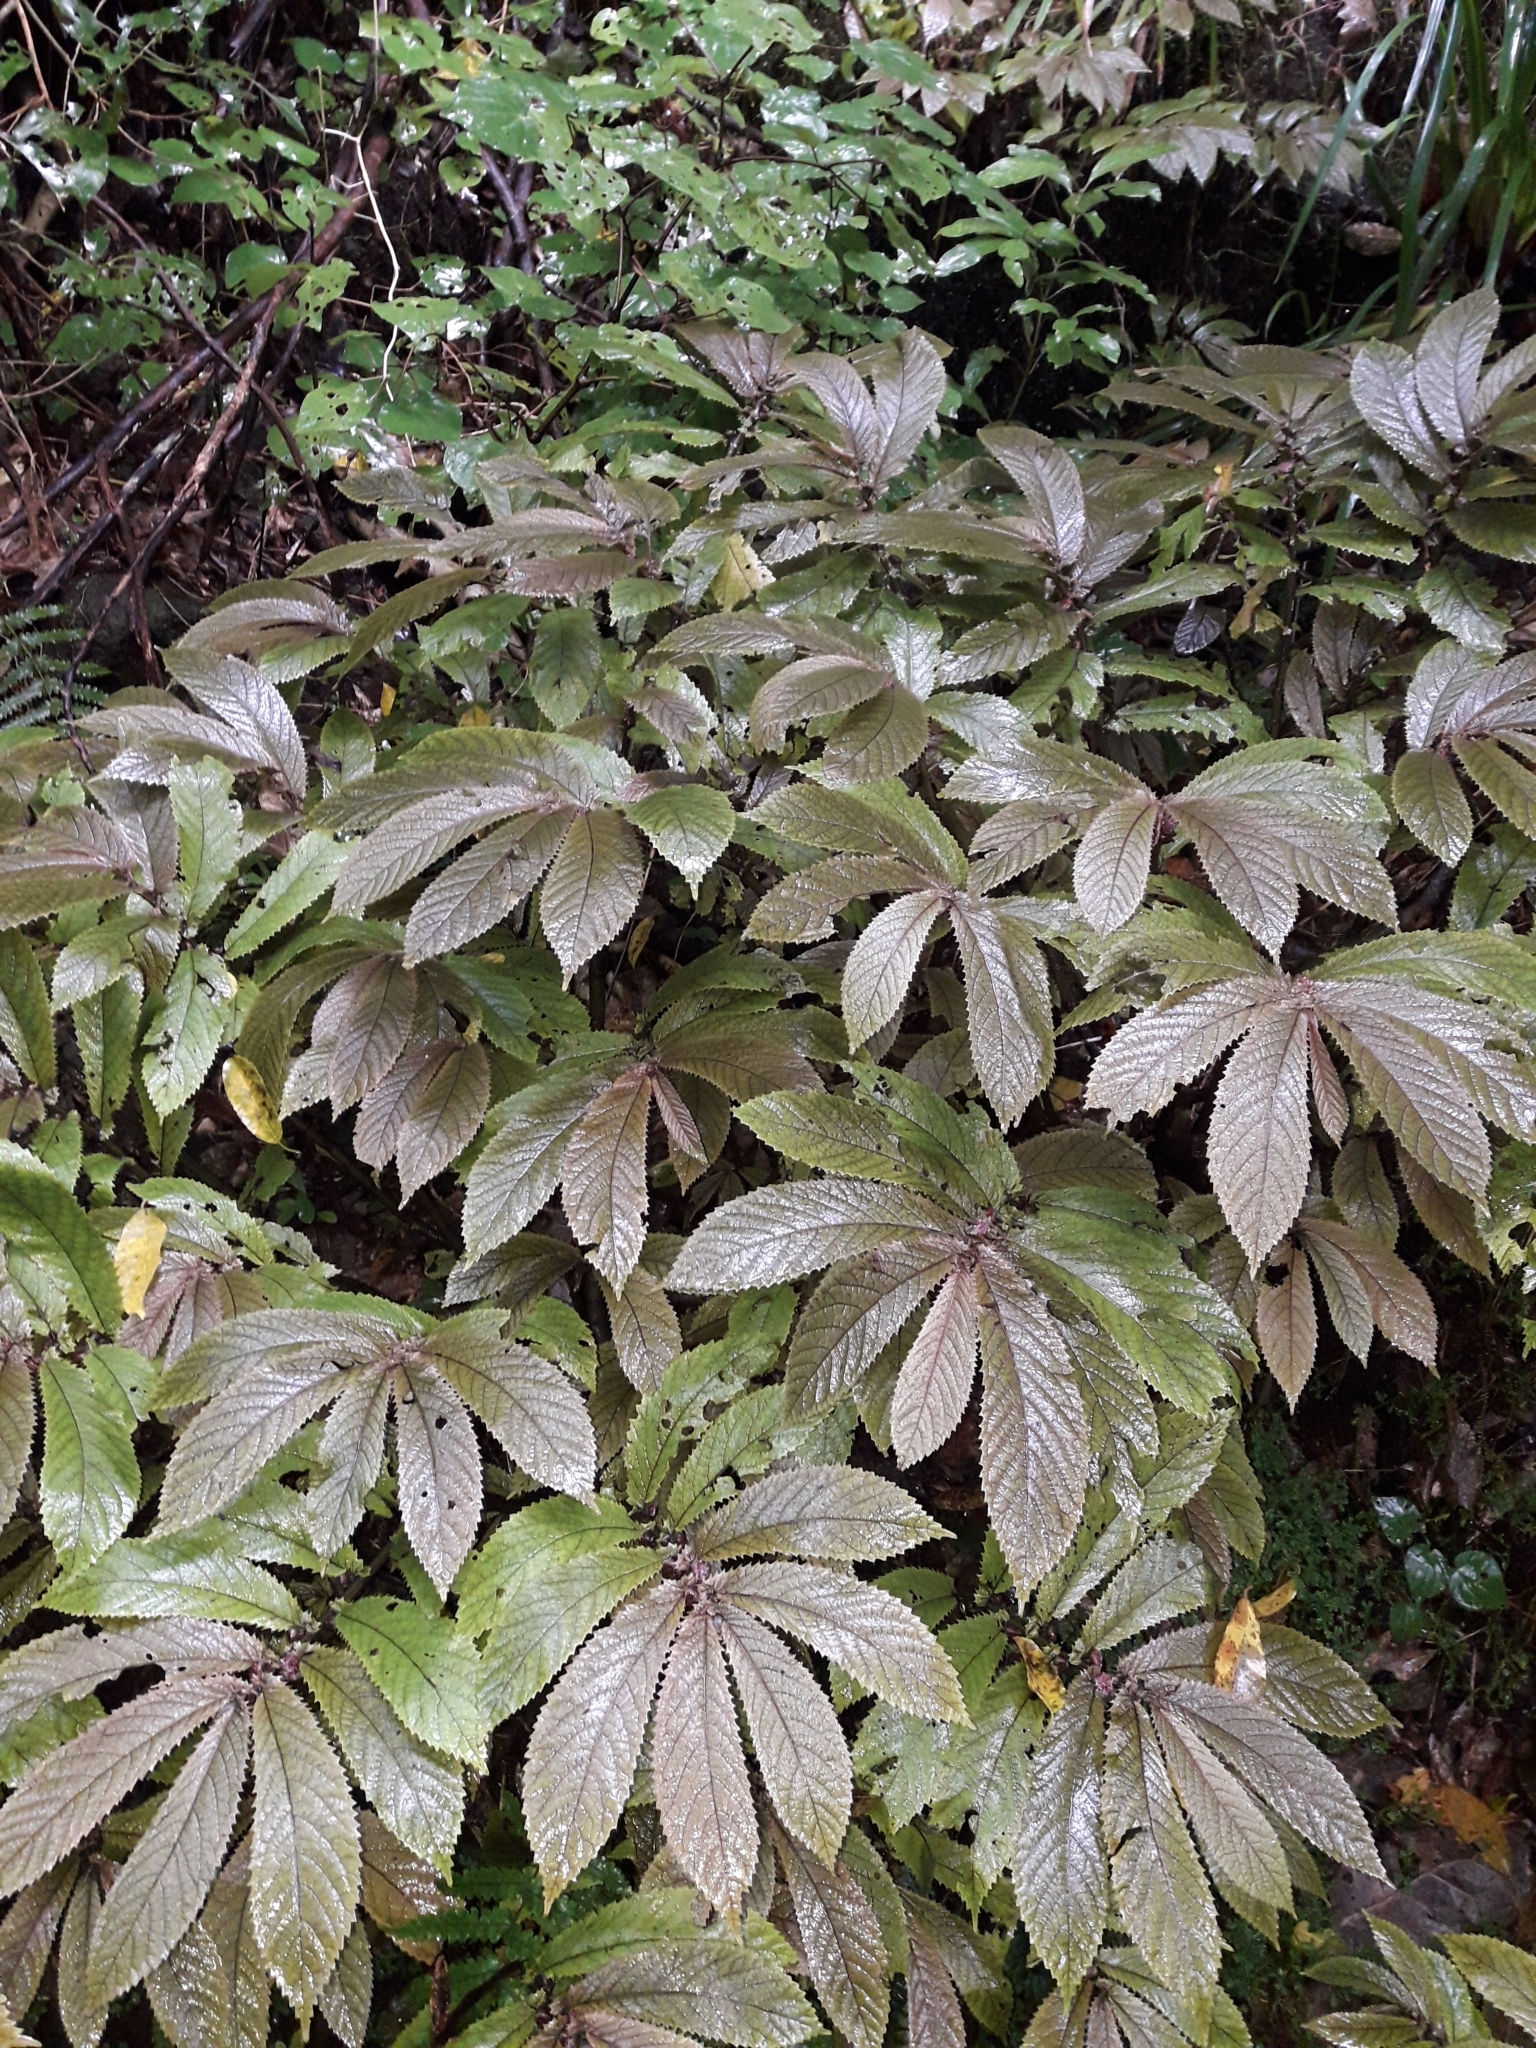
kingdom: Plantae
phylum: Tracheophyta
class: Magnoliopsida
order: Rosales
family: Urticaceae
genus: Elatostema
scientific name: Elatostema rugosum
